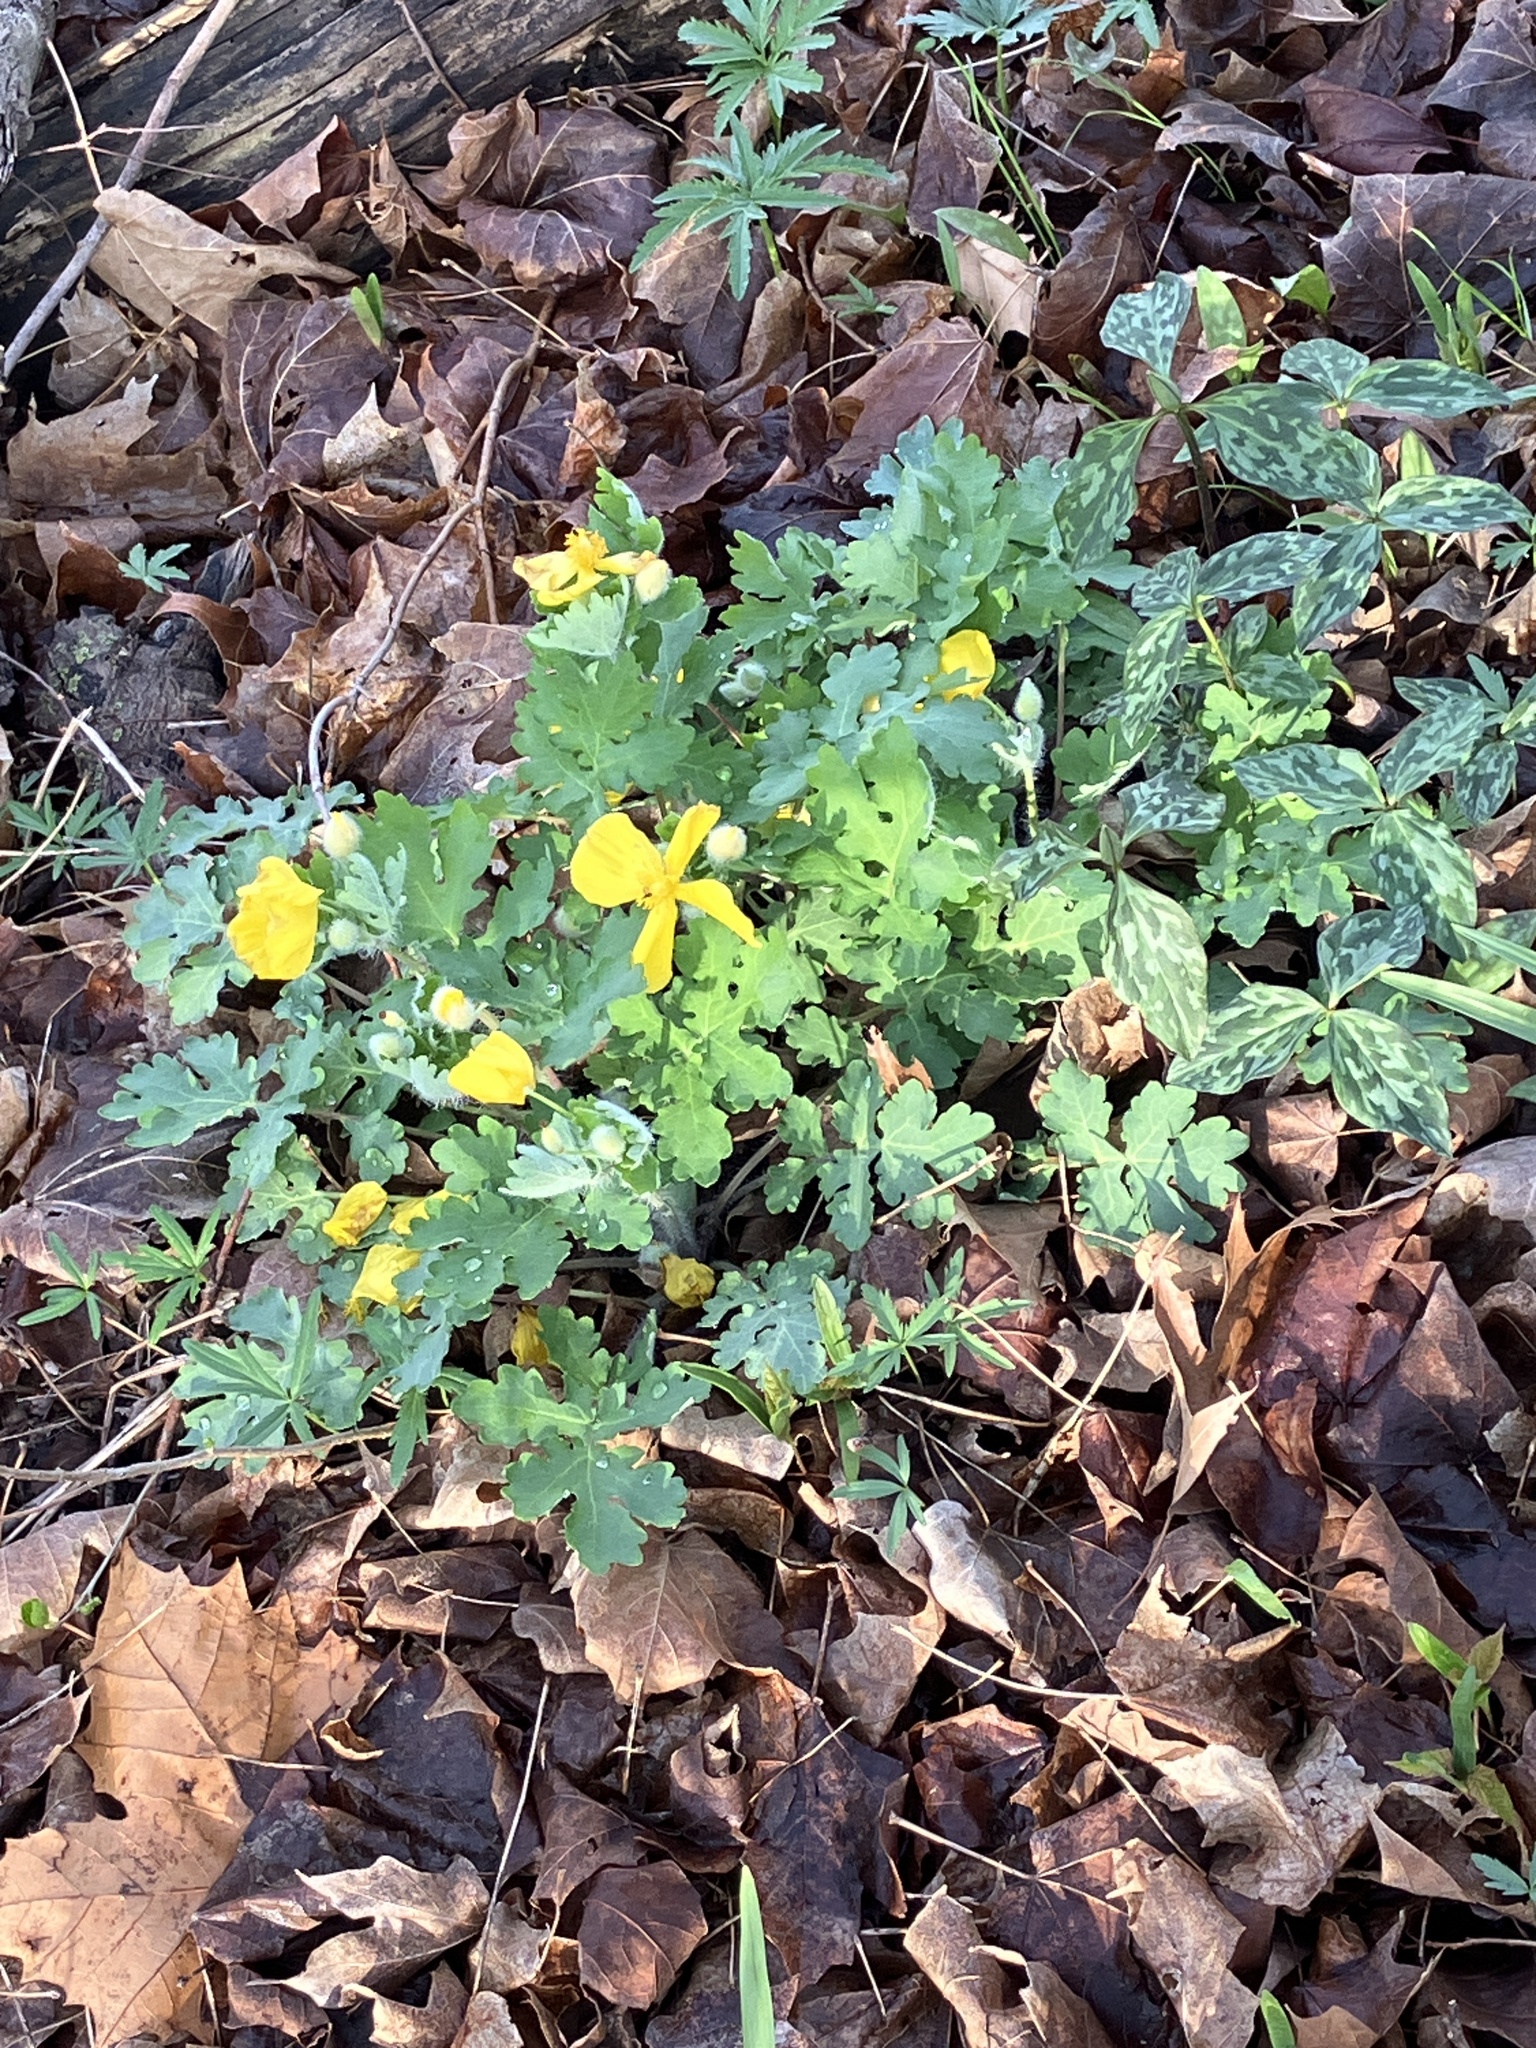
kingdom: Plantae
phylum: Tracheophyta
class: Magnoliopsida
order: Ranunculales
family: Papaveraceae
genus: Stylophorum
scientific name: Stylophorum diphyllum
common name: Celandine poppy
